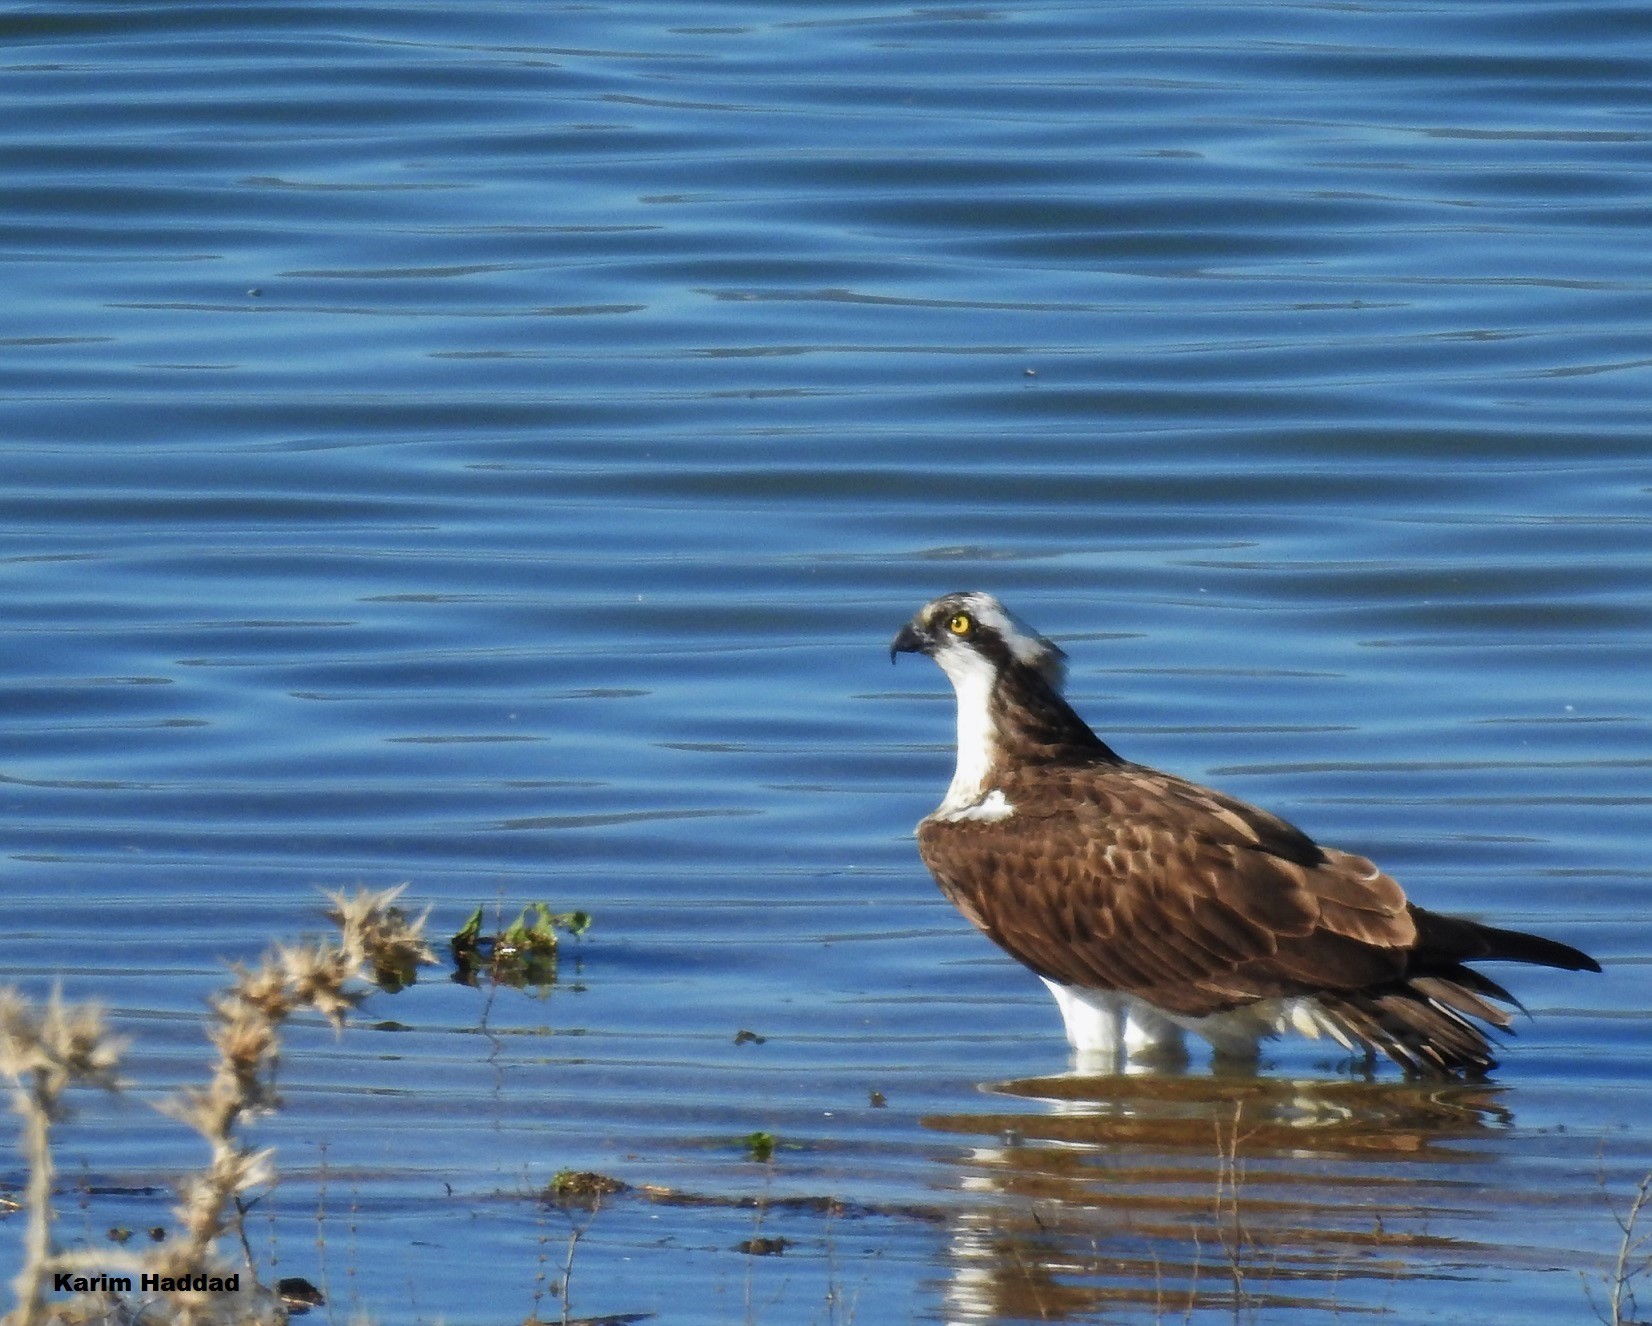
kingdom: Animalia
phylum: Chordata
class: Aves
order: Accipitriformes
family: Pandionidae
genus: Pandion
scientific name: Pandion haliaetus
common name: Osprey
